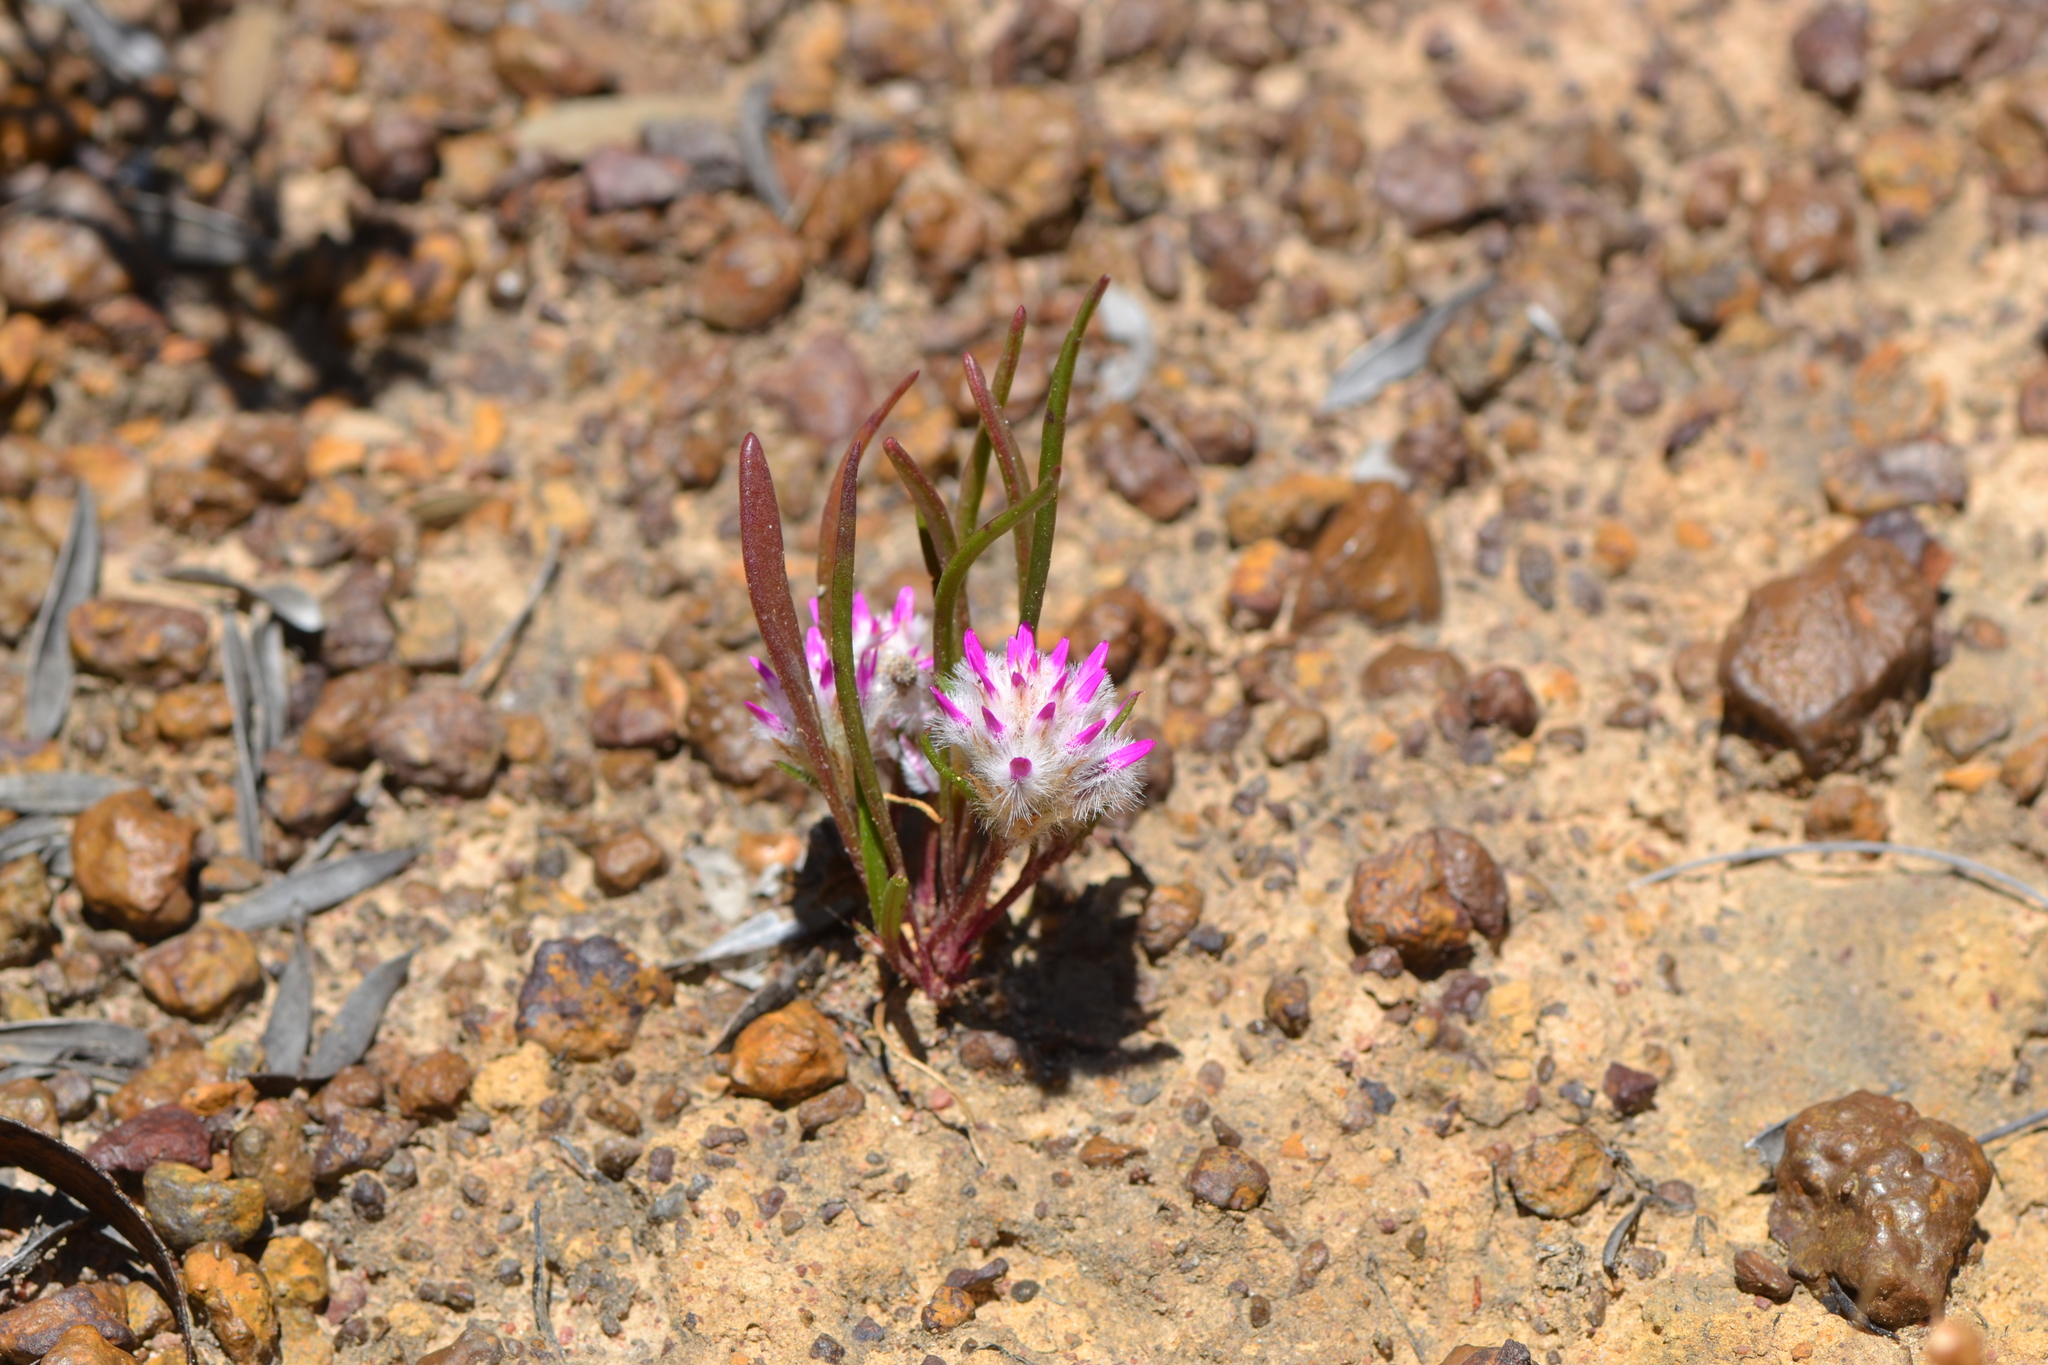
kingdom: Plantae
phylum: Tracheophyta
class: Magnoliopsida
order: Caryophyllales
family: Amaranthaceae
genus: Ptilotus
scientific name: Ptilotus davisii
